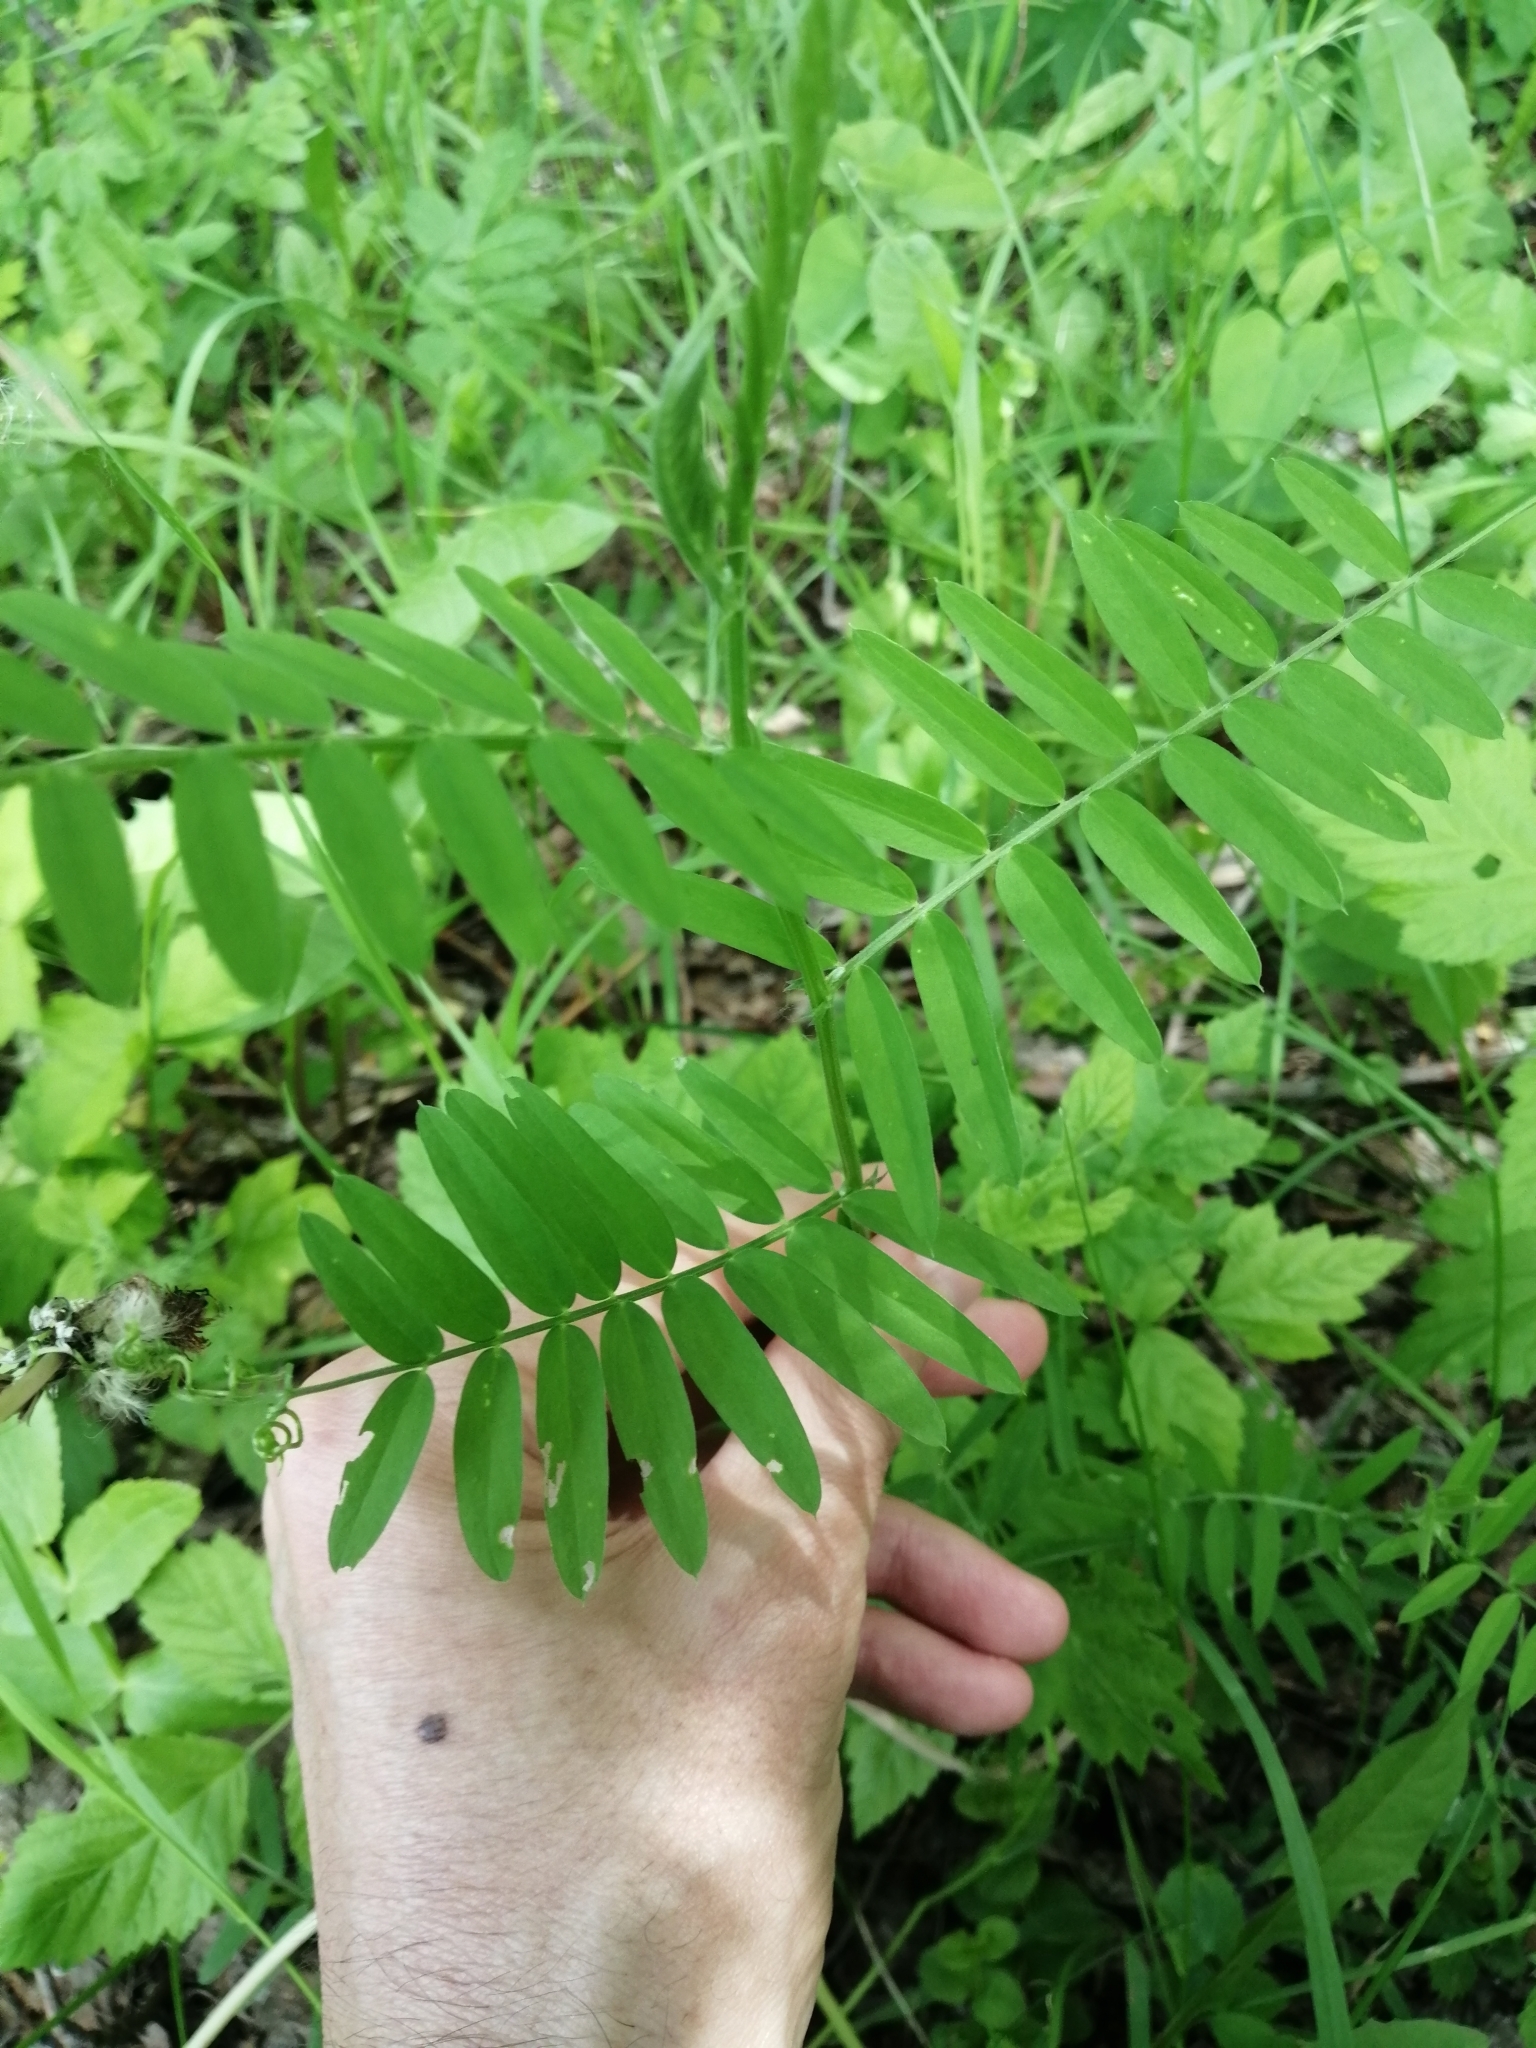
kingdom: Plantae
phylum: Tracheophyta
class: Magnoliopsida
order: Fabales
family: Fabaceae
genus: Vicia
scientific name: Vicia cracca
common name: Bird vetch
